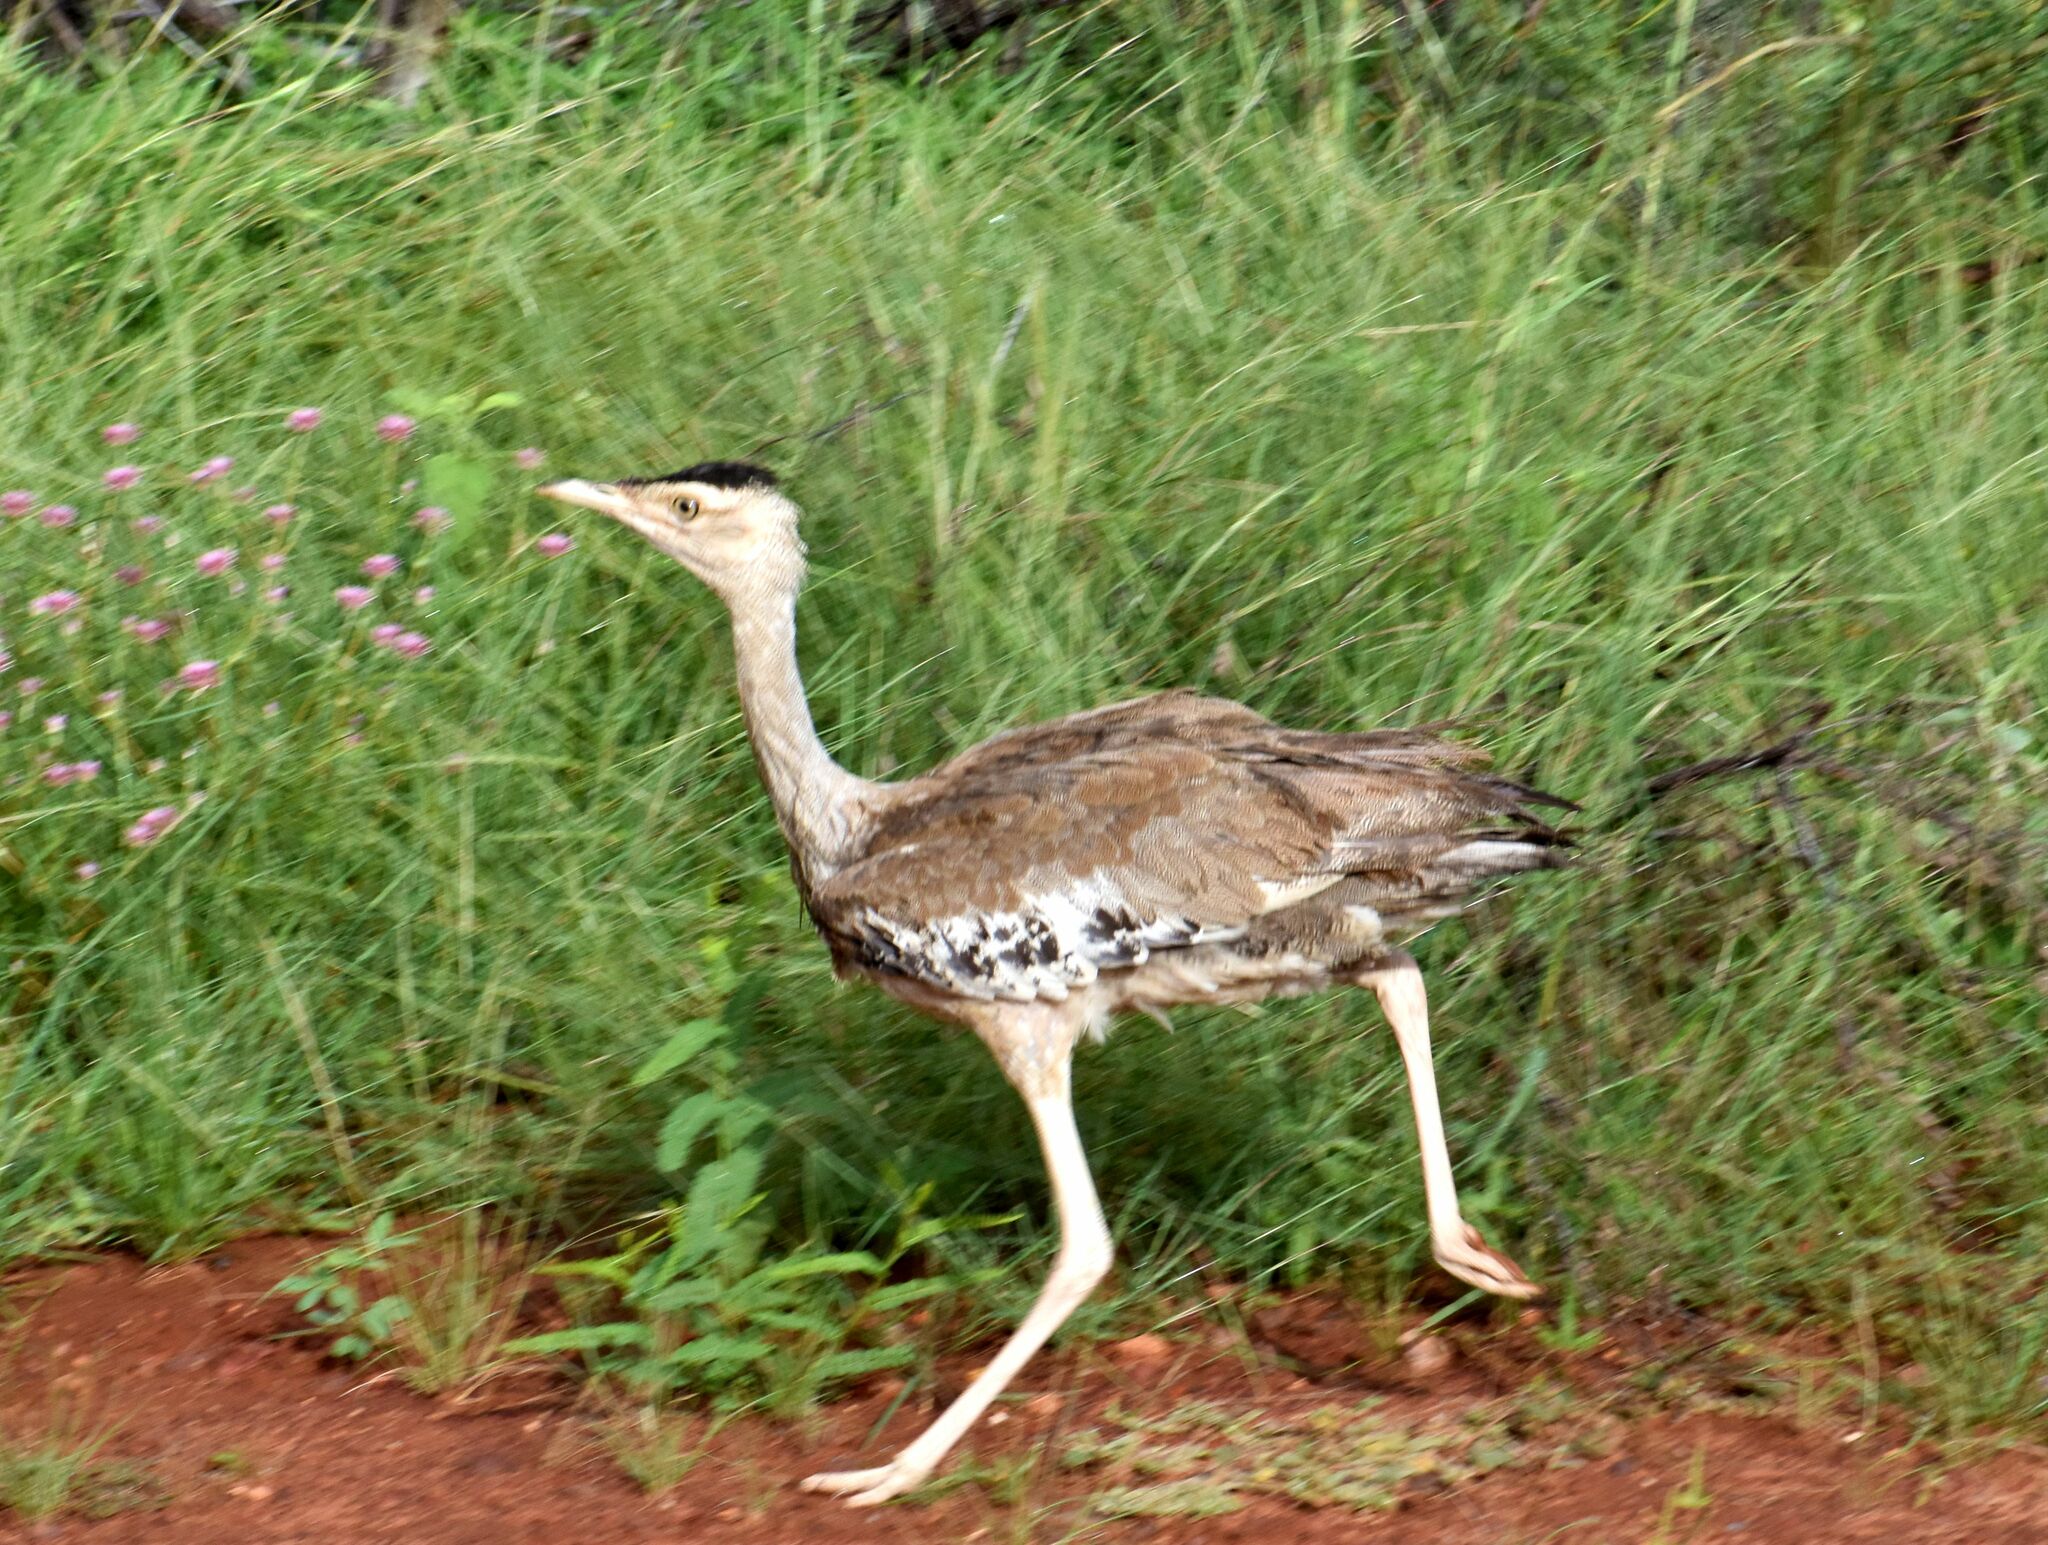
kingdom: Animalia
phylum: Chordata
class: Aves
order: Otidiformes
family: Otididae
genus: Ardeotis
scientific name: Ardeotis australis
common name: Australian bustard
